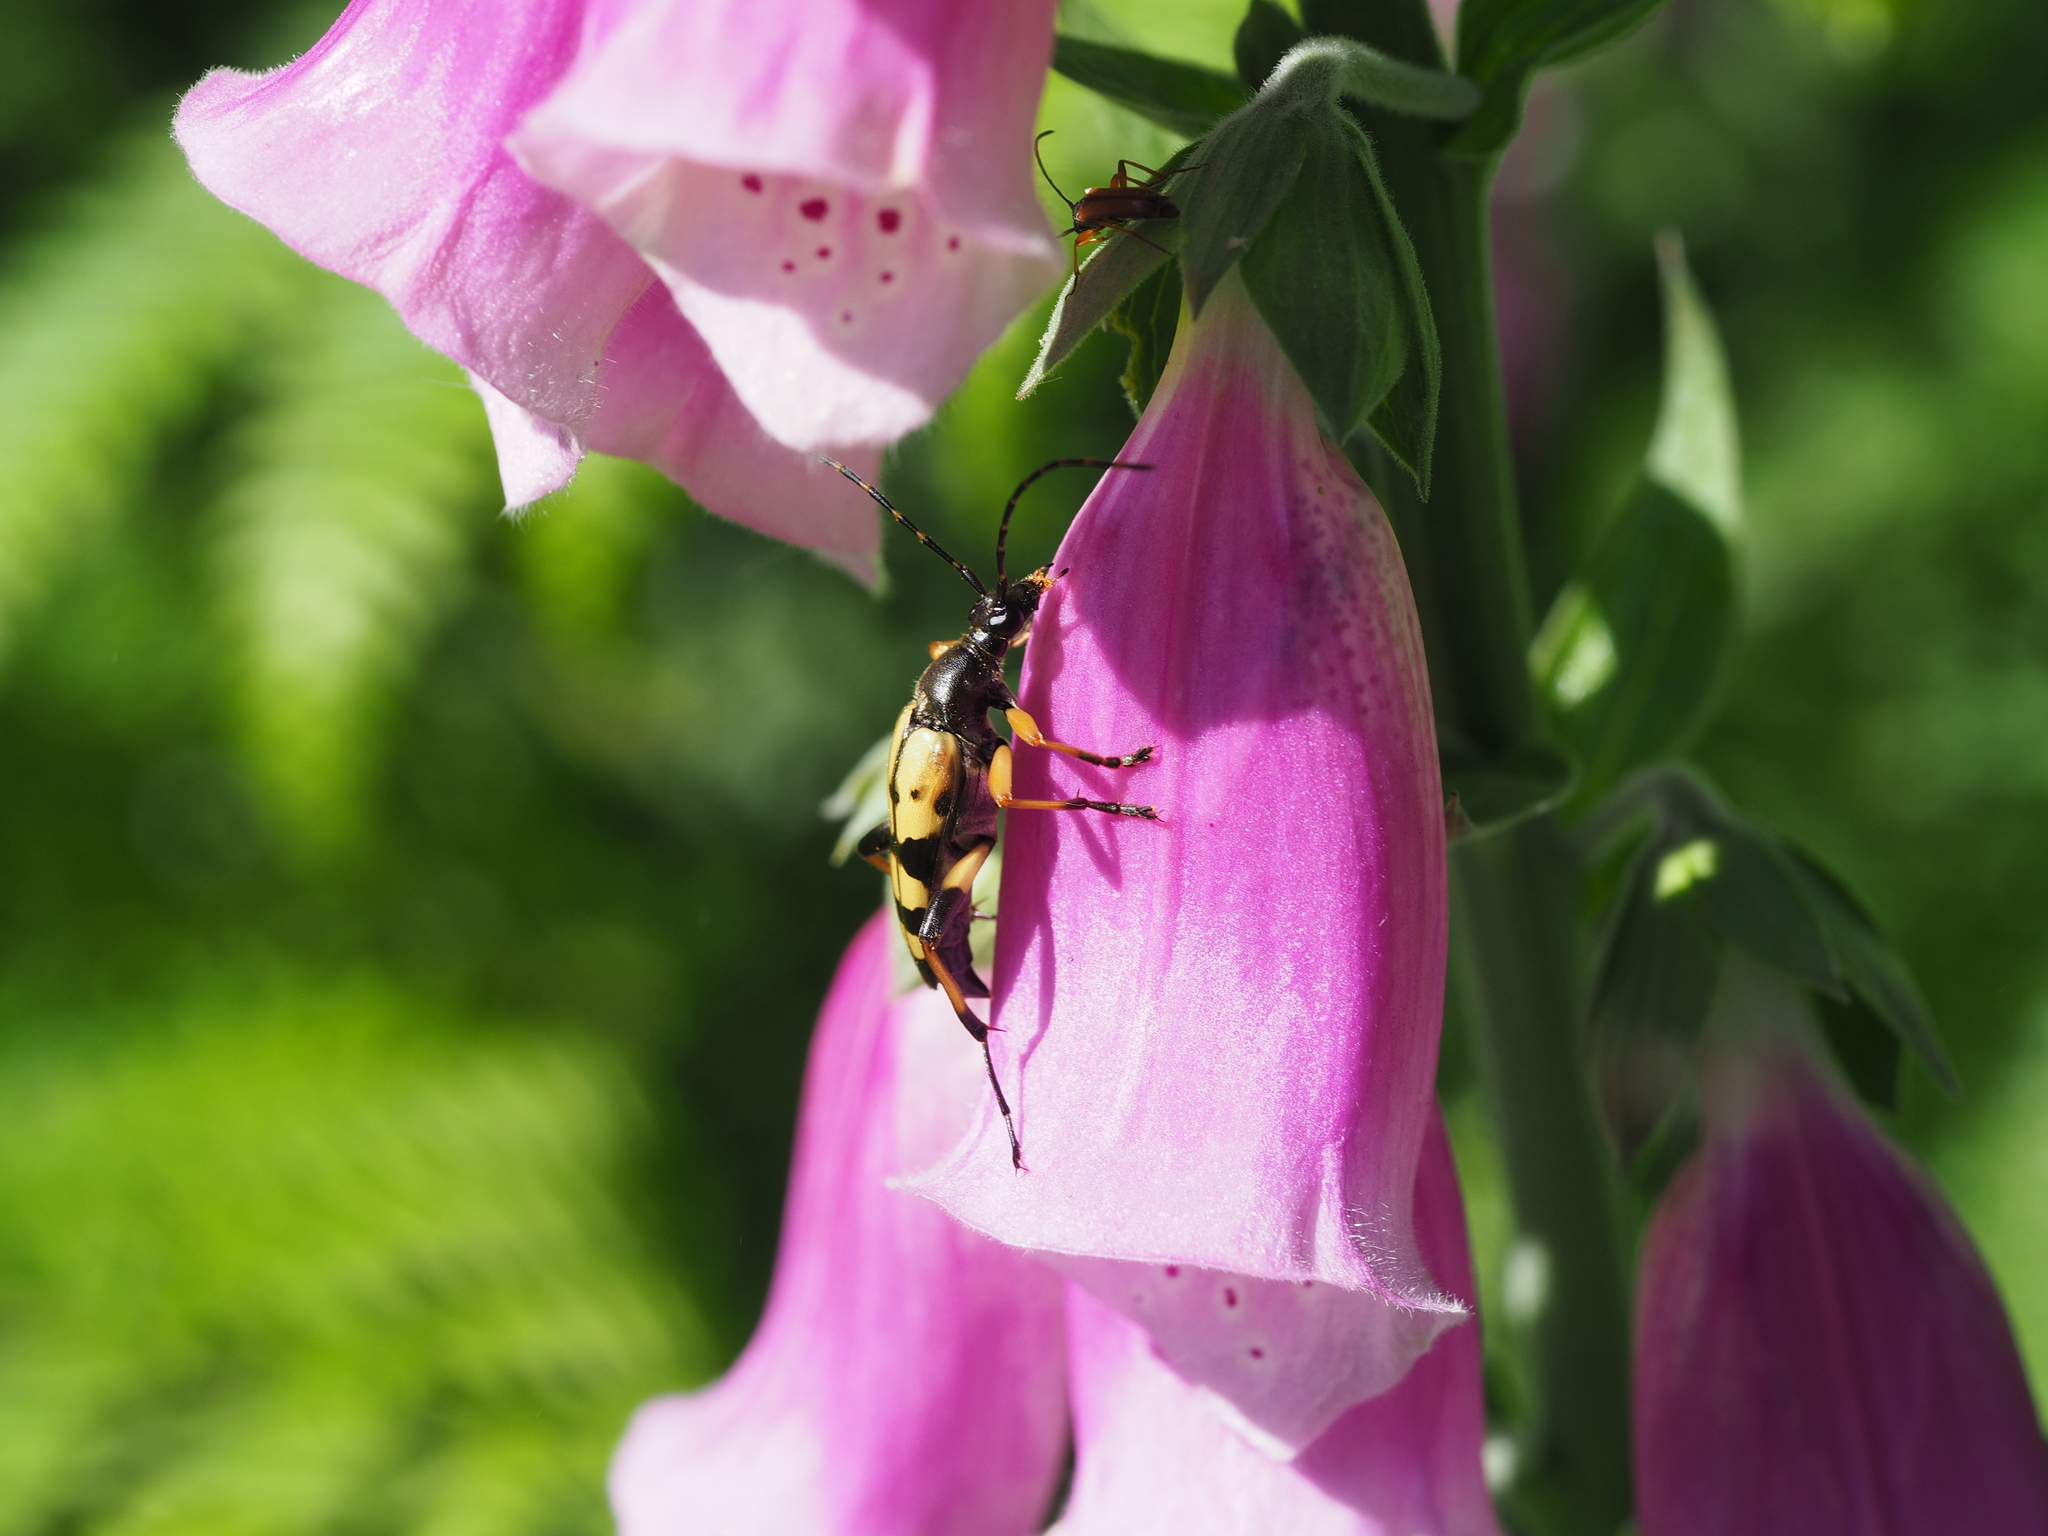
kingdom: Animalia
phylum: Arthropoda
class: Insecta
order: Coleoptera
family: Cerambycidae
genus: Rutpela
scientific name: Rutpela maculata
